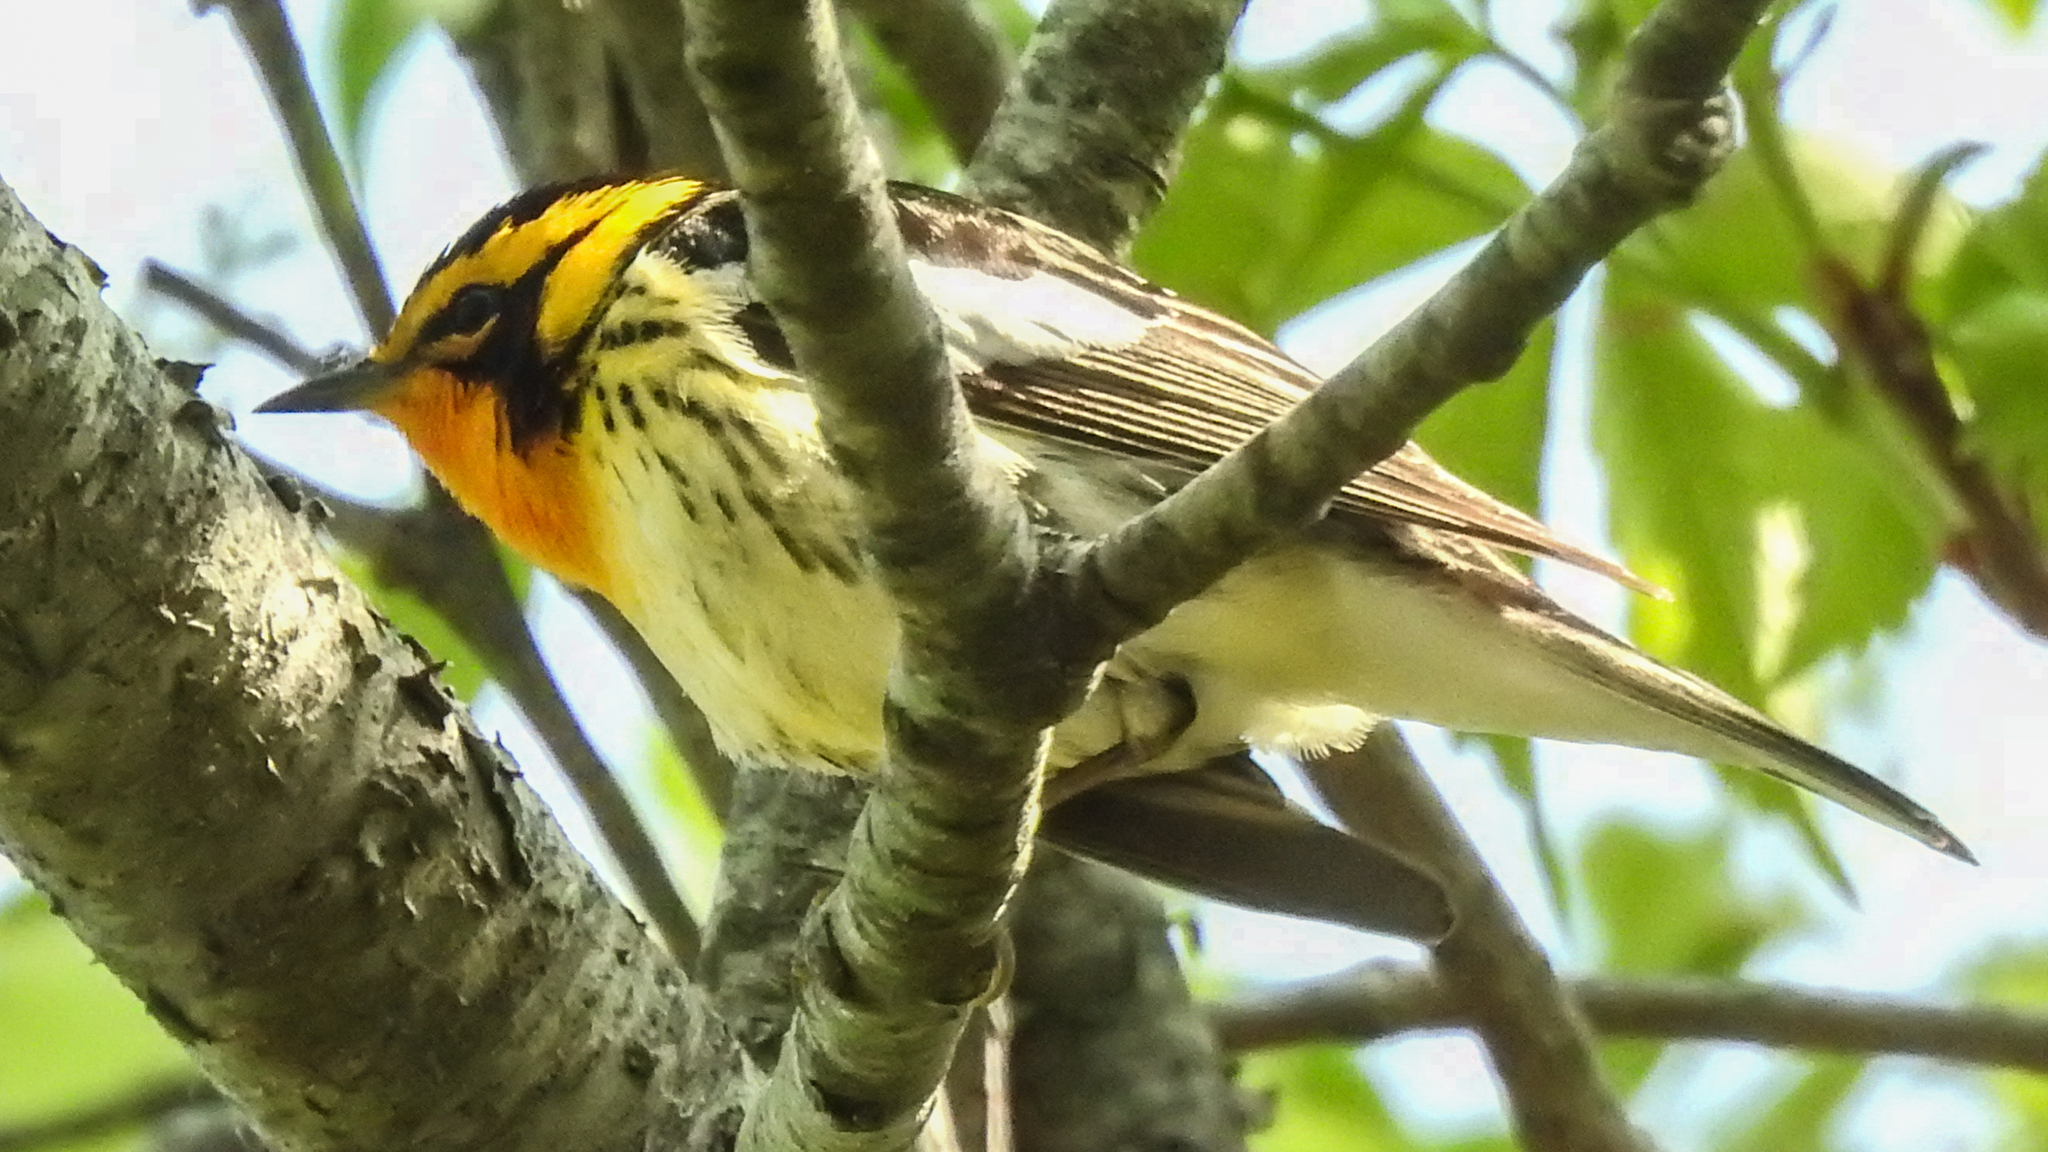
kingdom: Animalia
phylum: Chordata
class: Aves
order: Passeriformes
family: Parulidae
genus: Setophaga
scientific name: Setophaga fusca
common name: Blackburnian warbler
